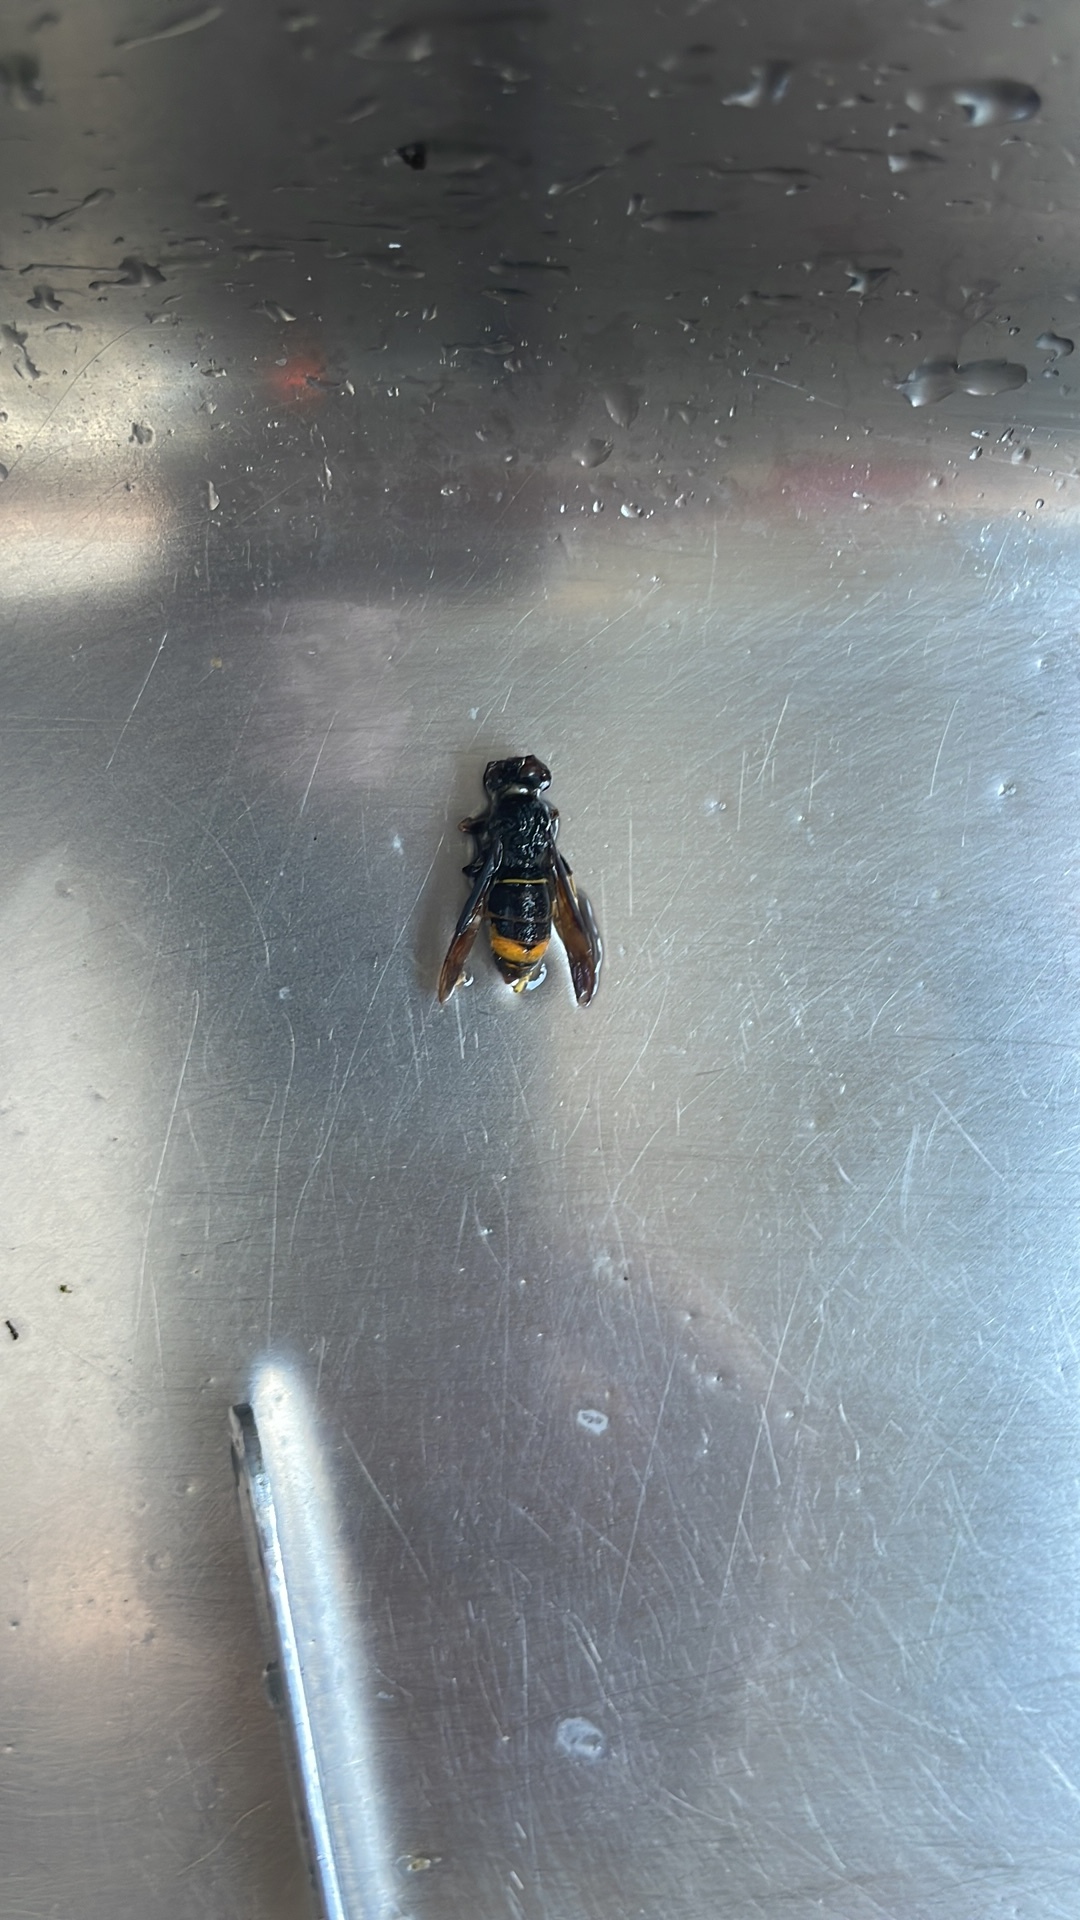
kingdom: Animalia
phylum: Arthropoda
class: Insecta
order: Hymenoptera
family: Vespidae
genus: Vespa
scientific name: Vespa velutina
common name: Asian hornet
